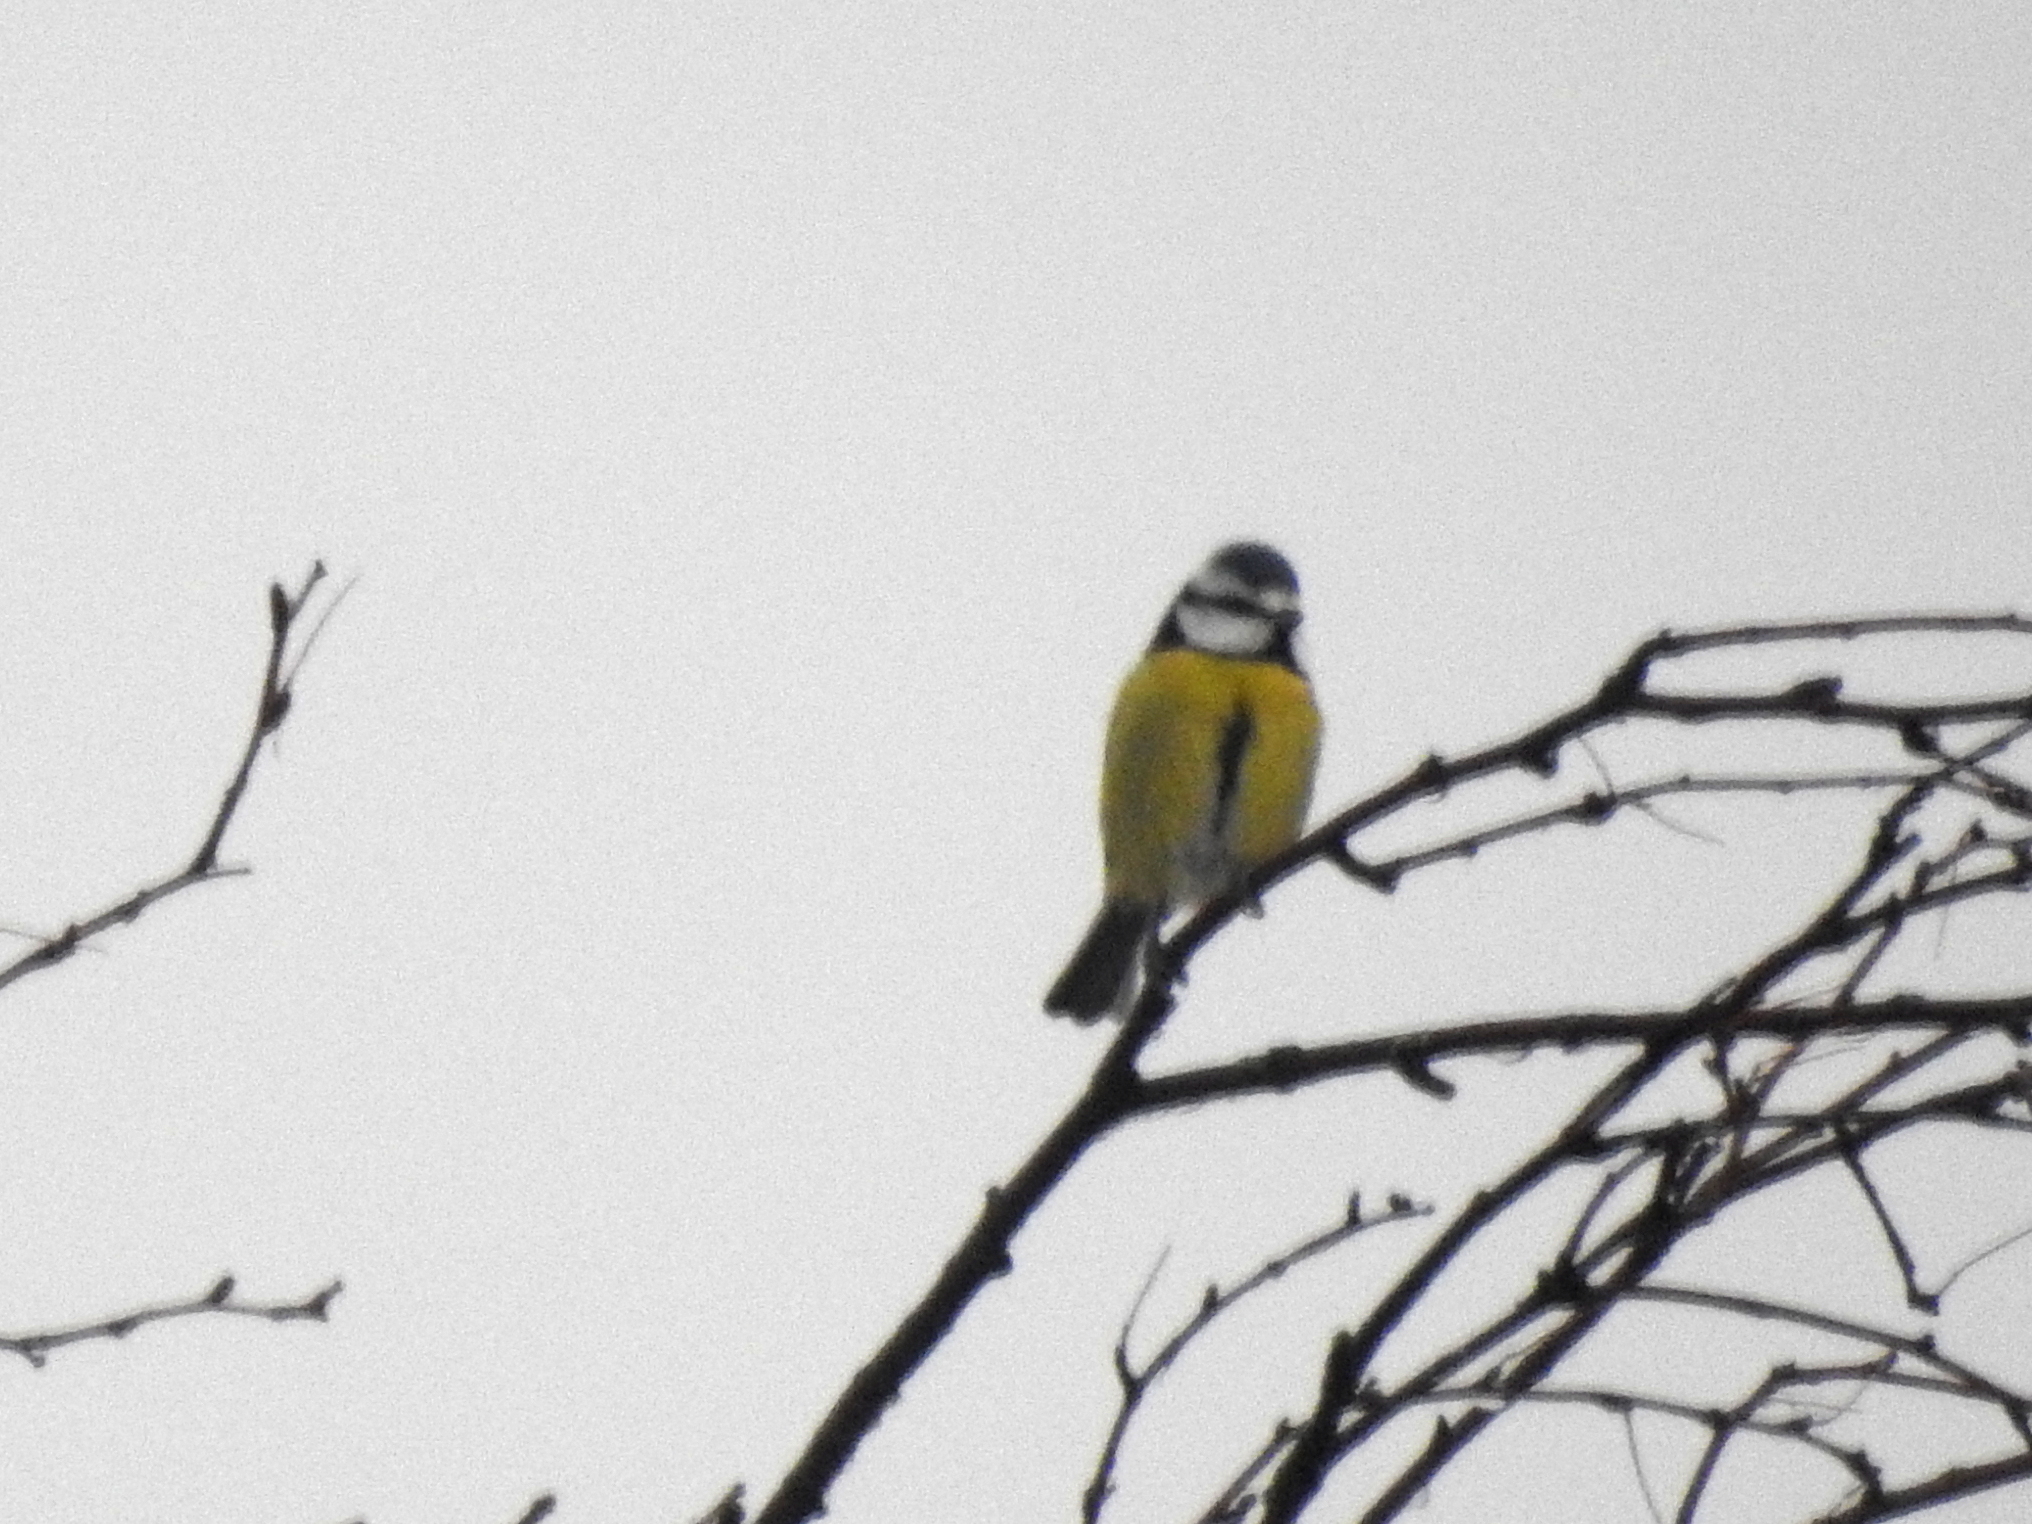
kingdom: Animalia
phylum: Chordata
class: Aves
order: Passeriformes
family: Paridae
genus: Cyanistes
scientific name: Cyanistes caeruleus
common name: Eurasian blue tit
